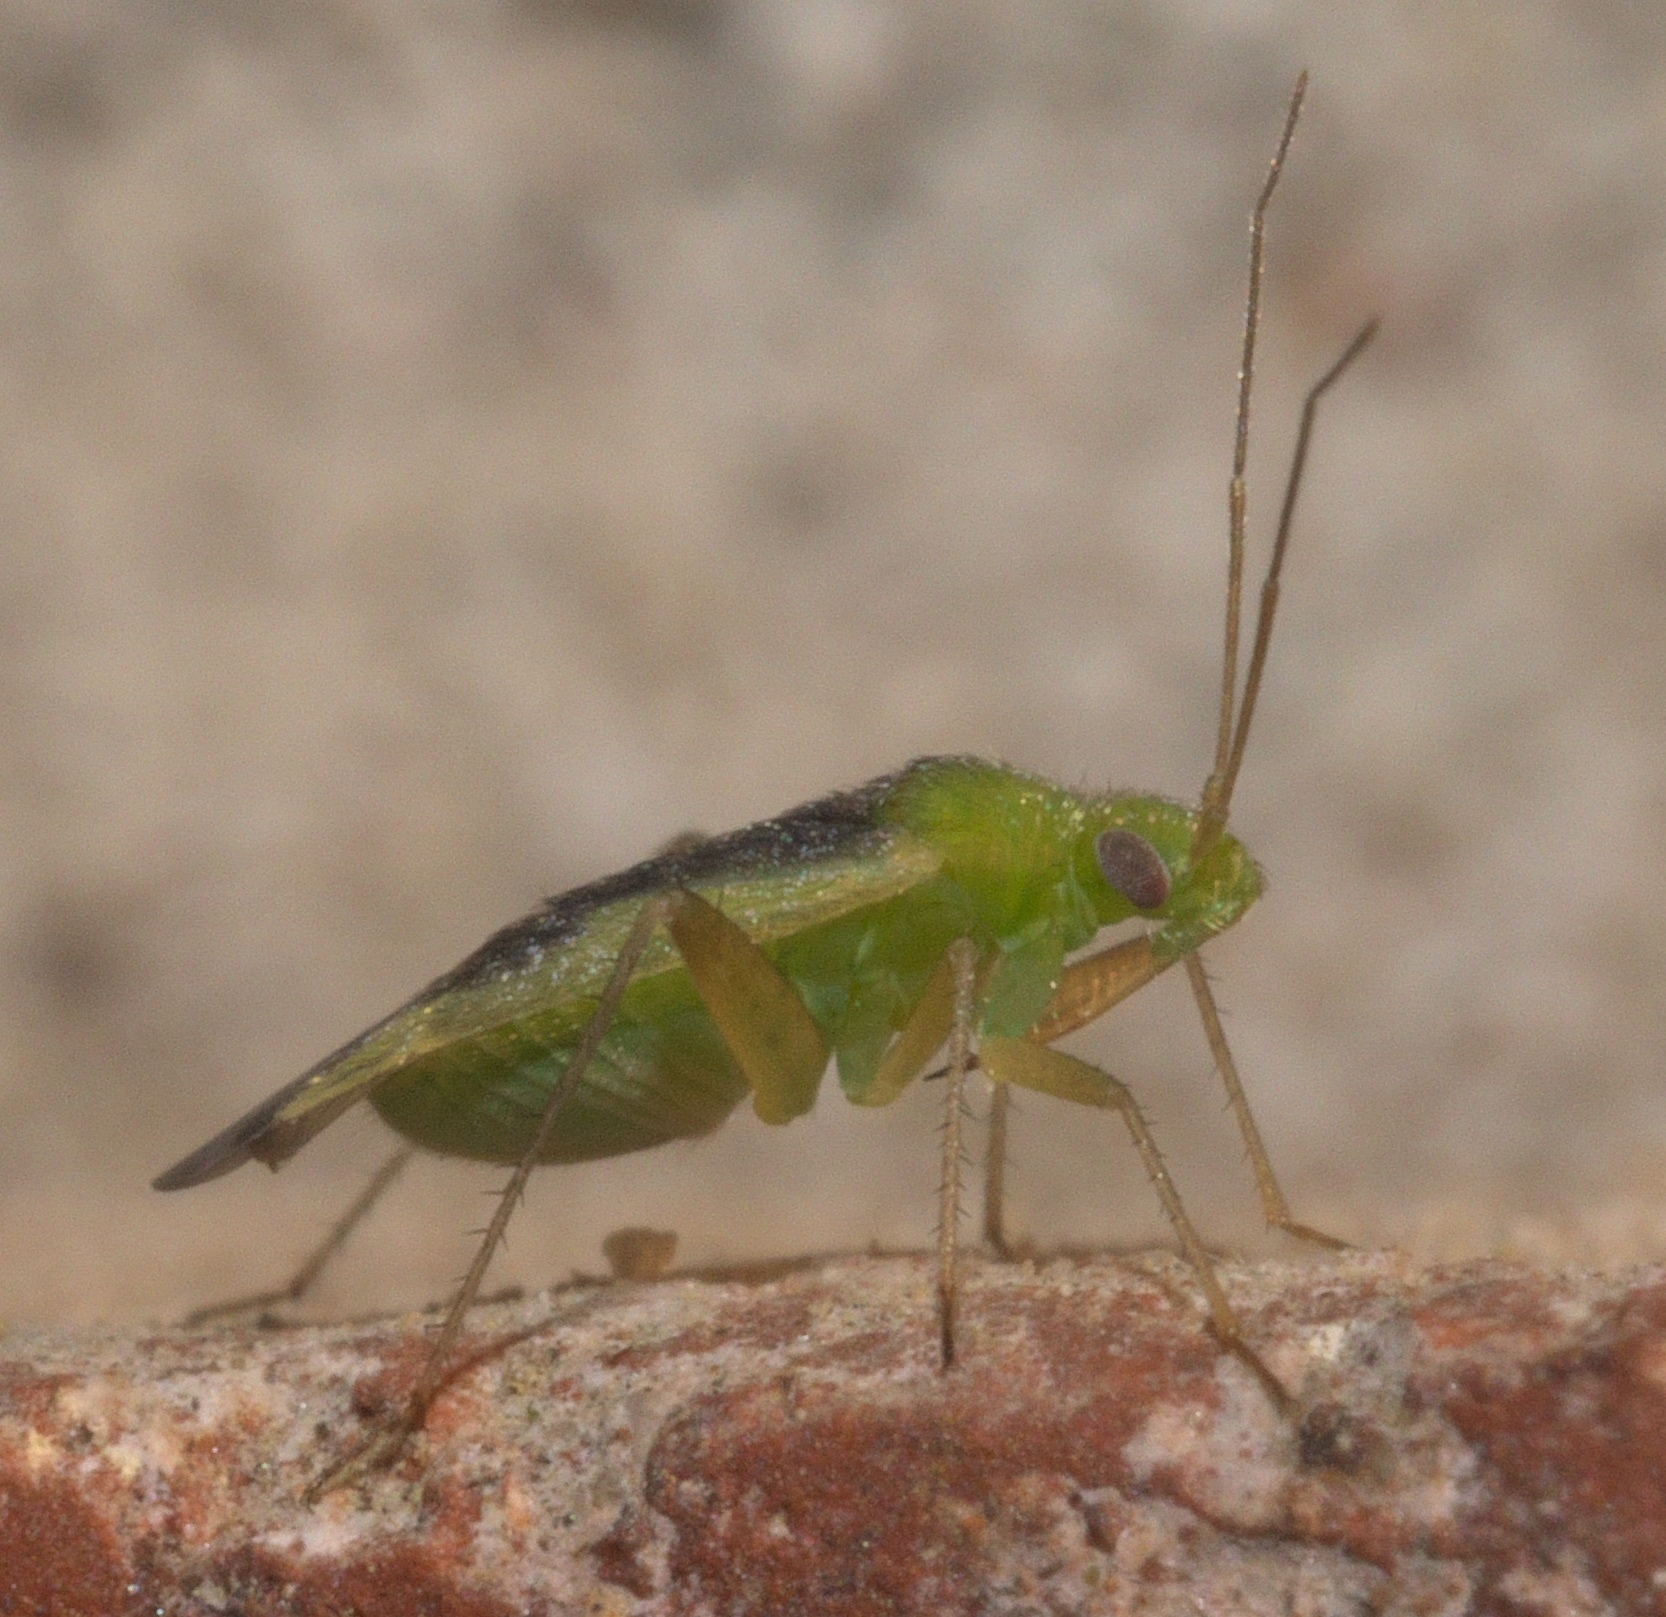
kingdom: Animalia
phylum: Arthropoda
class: Insecta
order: Hemiptera
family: Miridae
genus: Reuteroscopus
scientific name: Reuteroscopus ornatus
